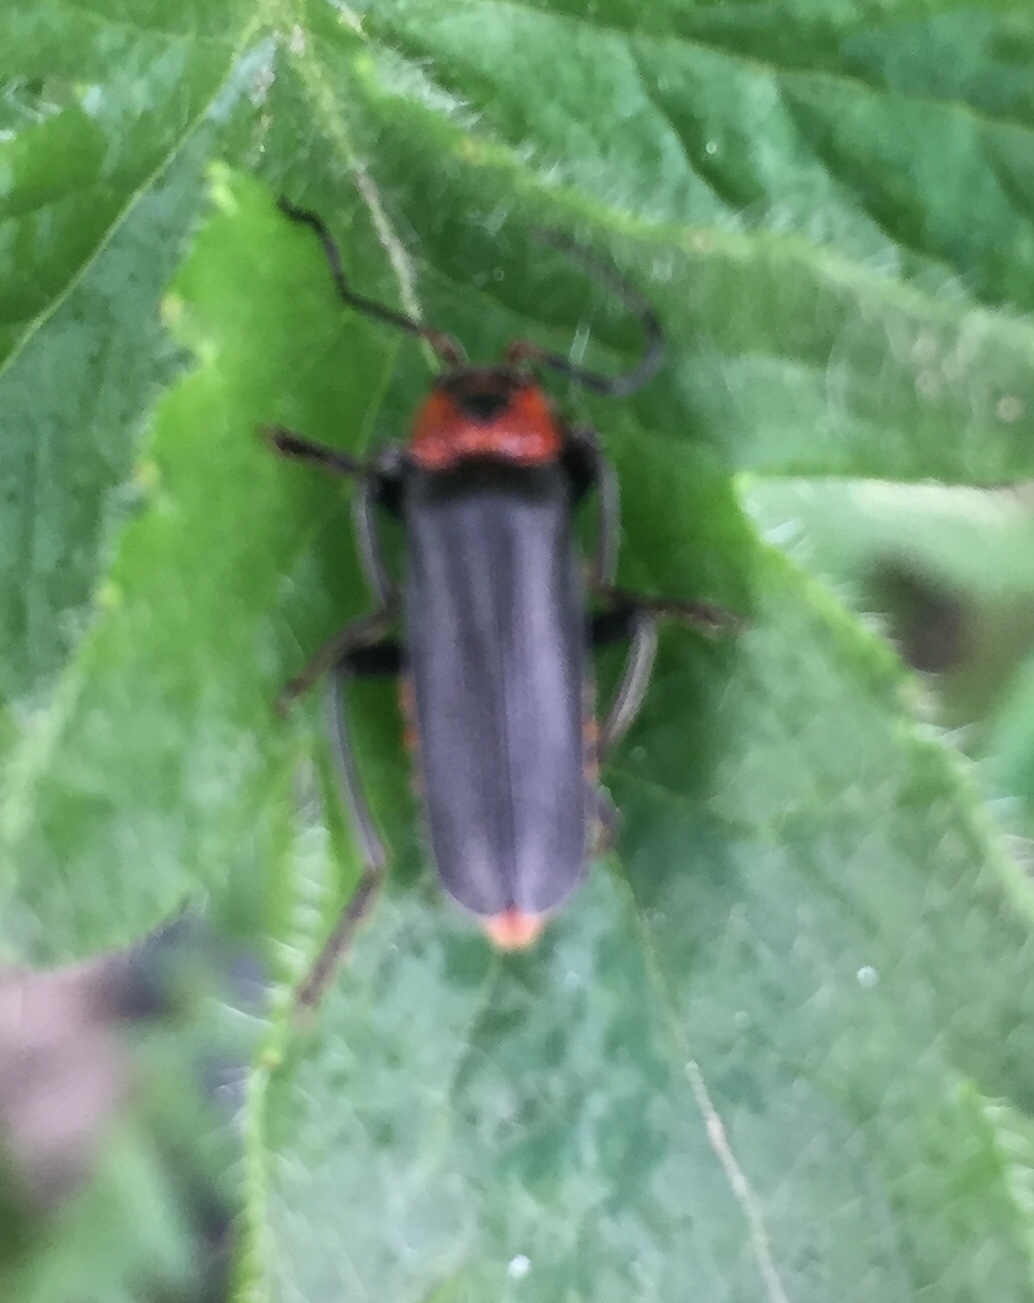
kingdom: Animalia
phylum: Arthropoda
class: Insecta
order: Coleoptera
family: Cantharidae
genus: Cantharis
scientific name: Cantharis fusca
